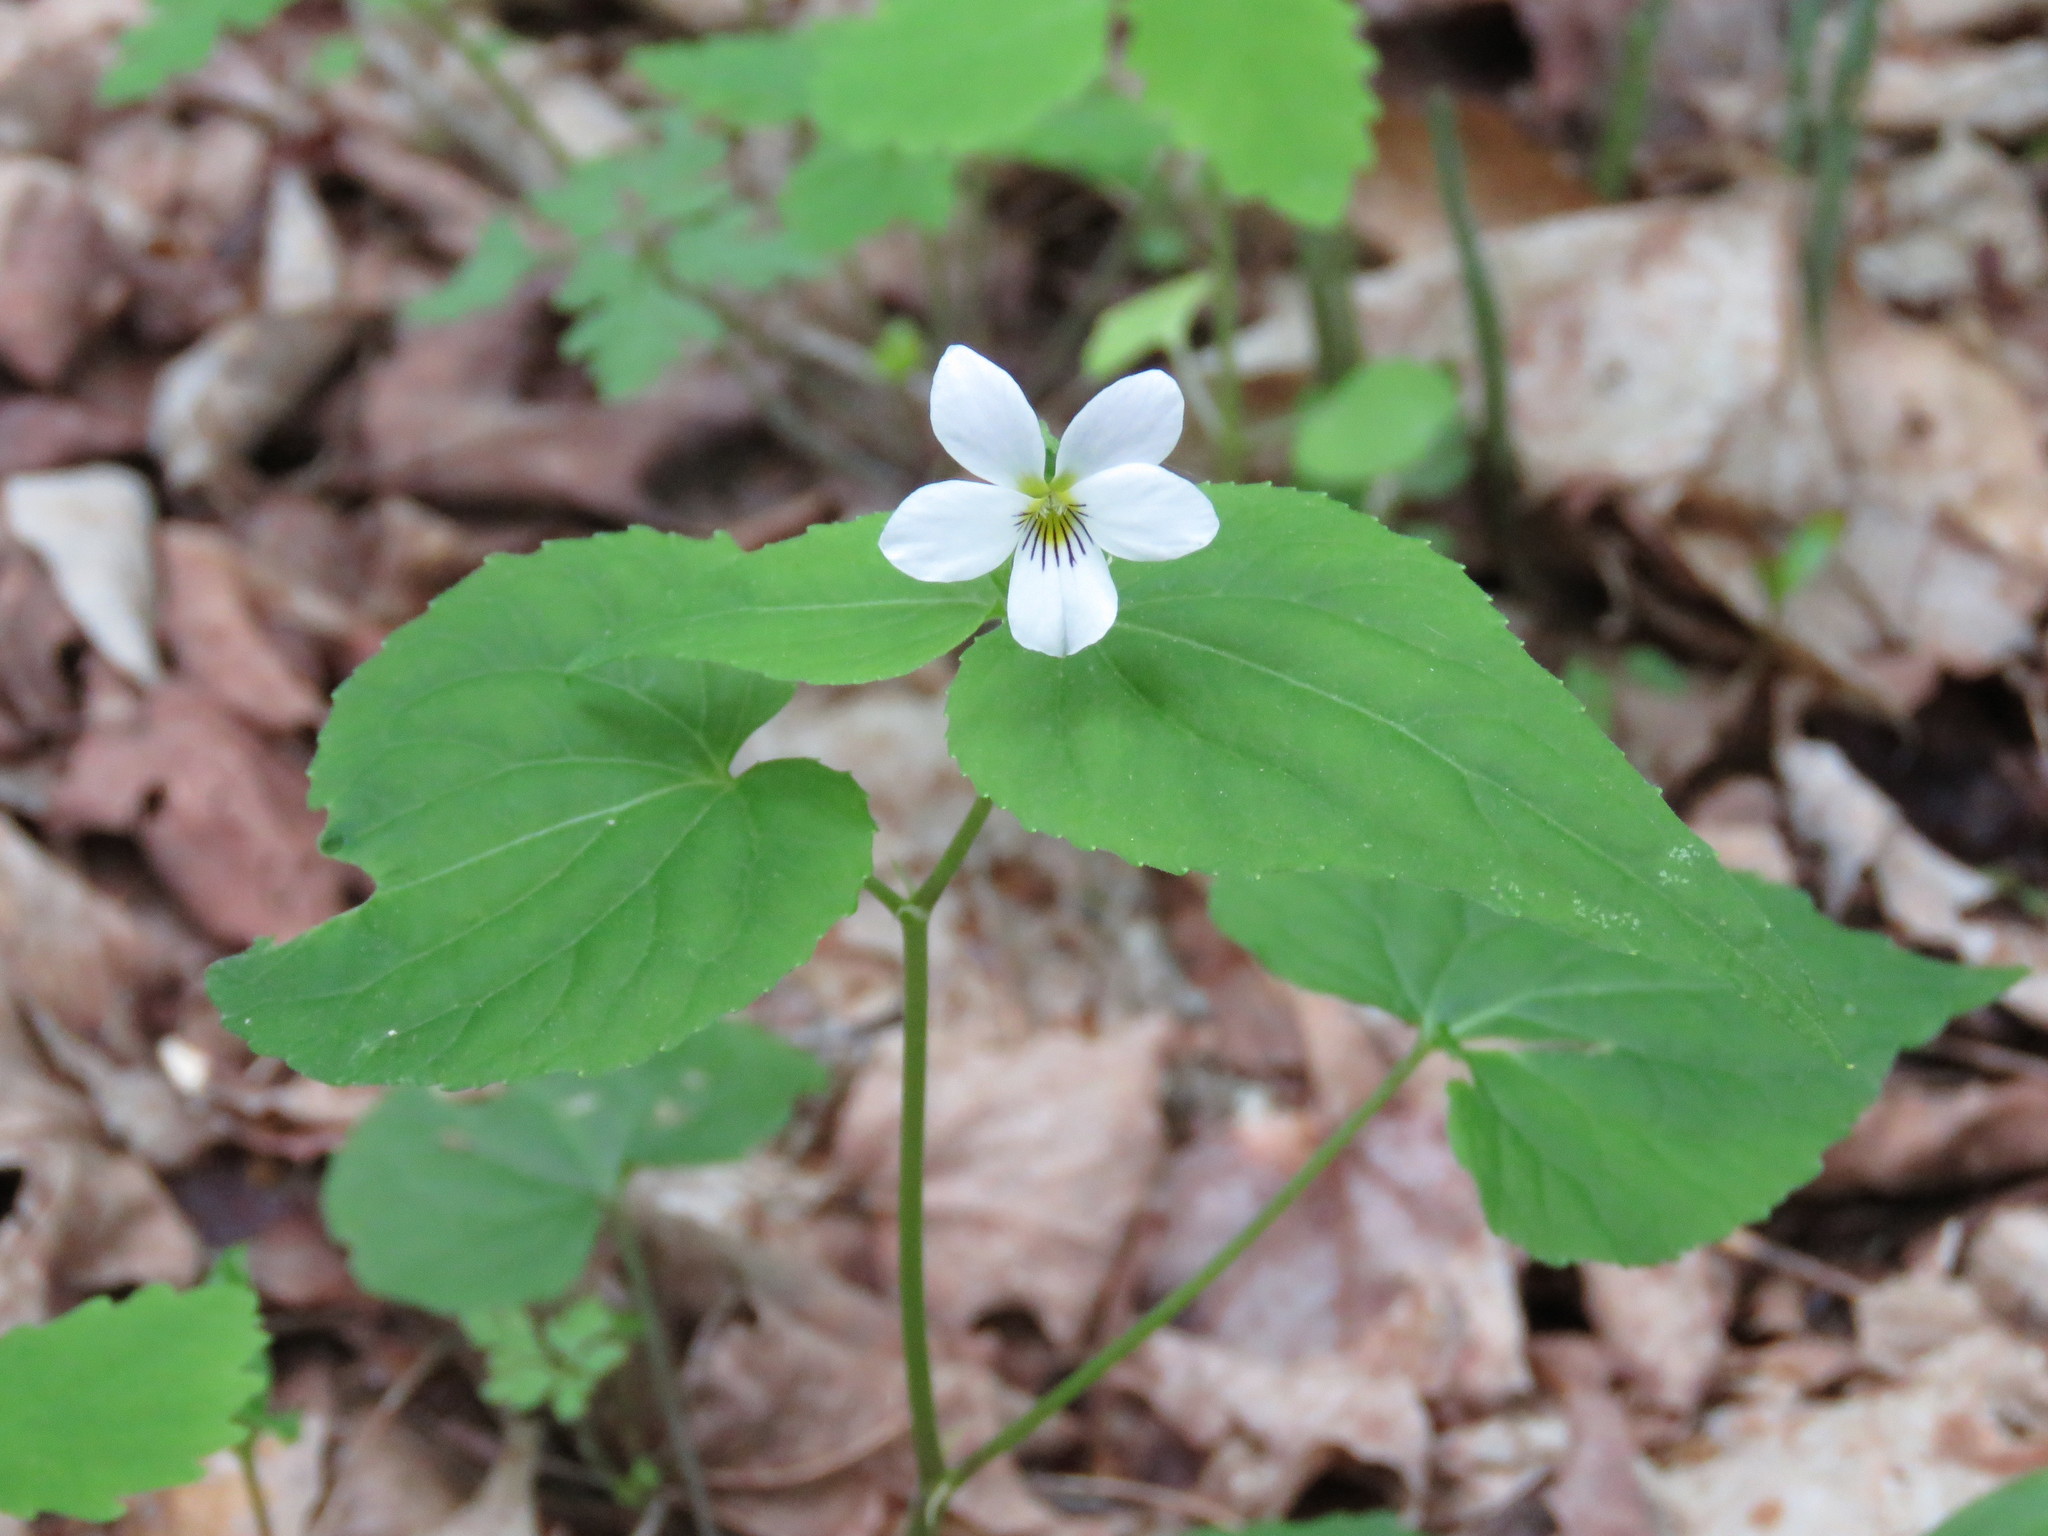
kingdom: Plantae
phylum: Tracheophyta
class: Magnoliopsida
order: Malpighiales
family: Violaceae
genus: Viola
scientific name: Viola canadensis
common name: Canada violet
